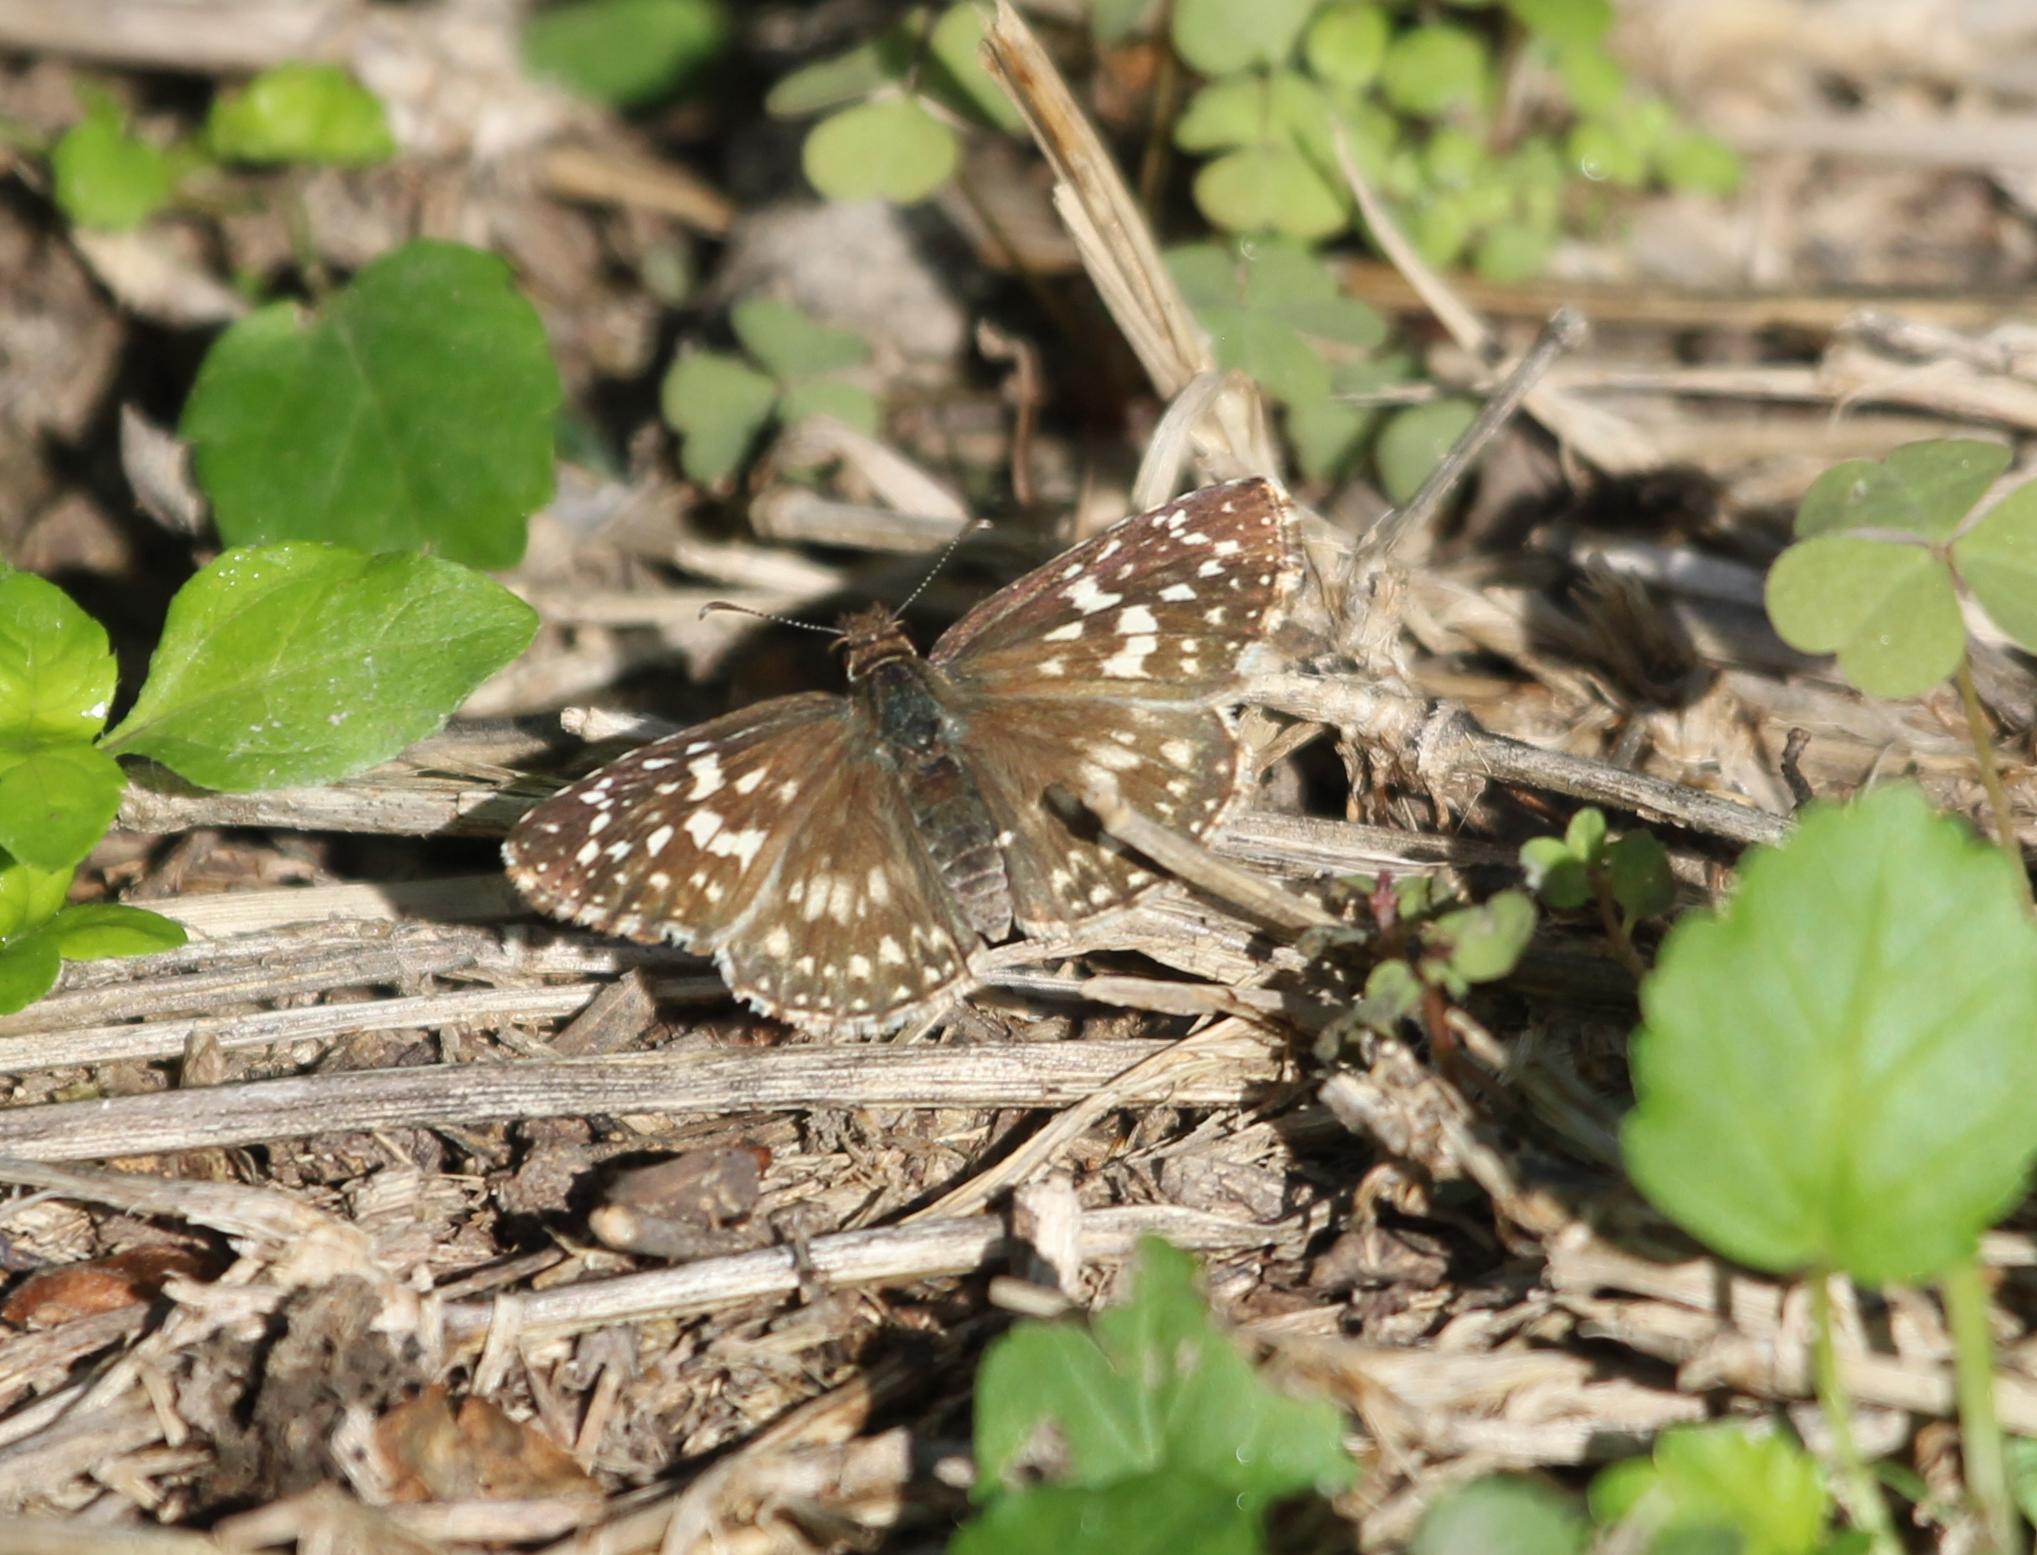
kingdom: Animalia
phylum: Arthropoda
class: Insecta
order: Lepidoptera
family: Hesperiidae
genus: Pyrgus
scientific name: Pyrgus oileus
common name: Tropical checkered-skipper
